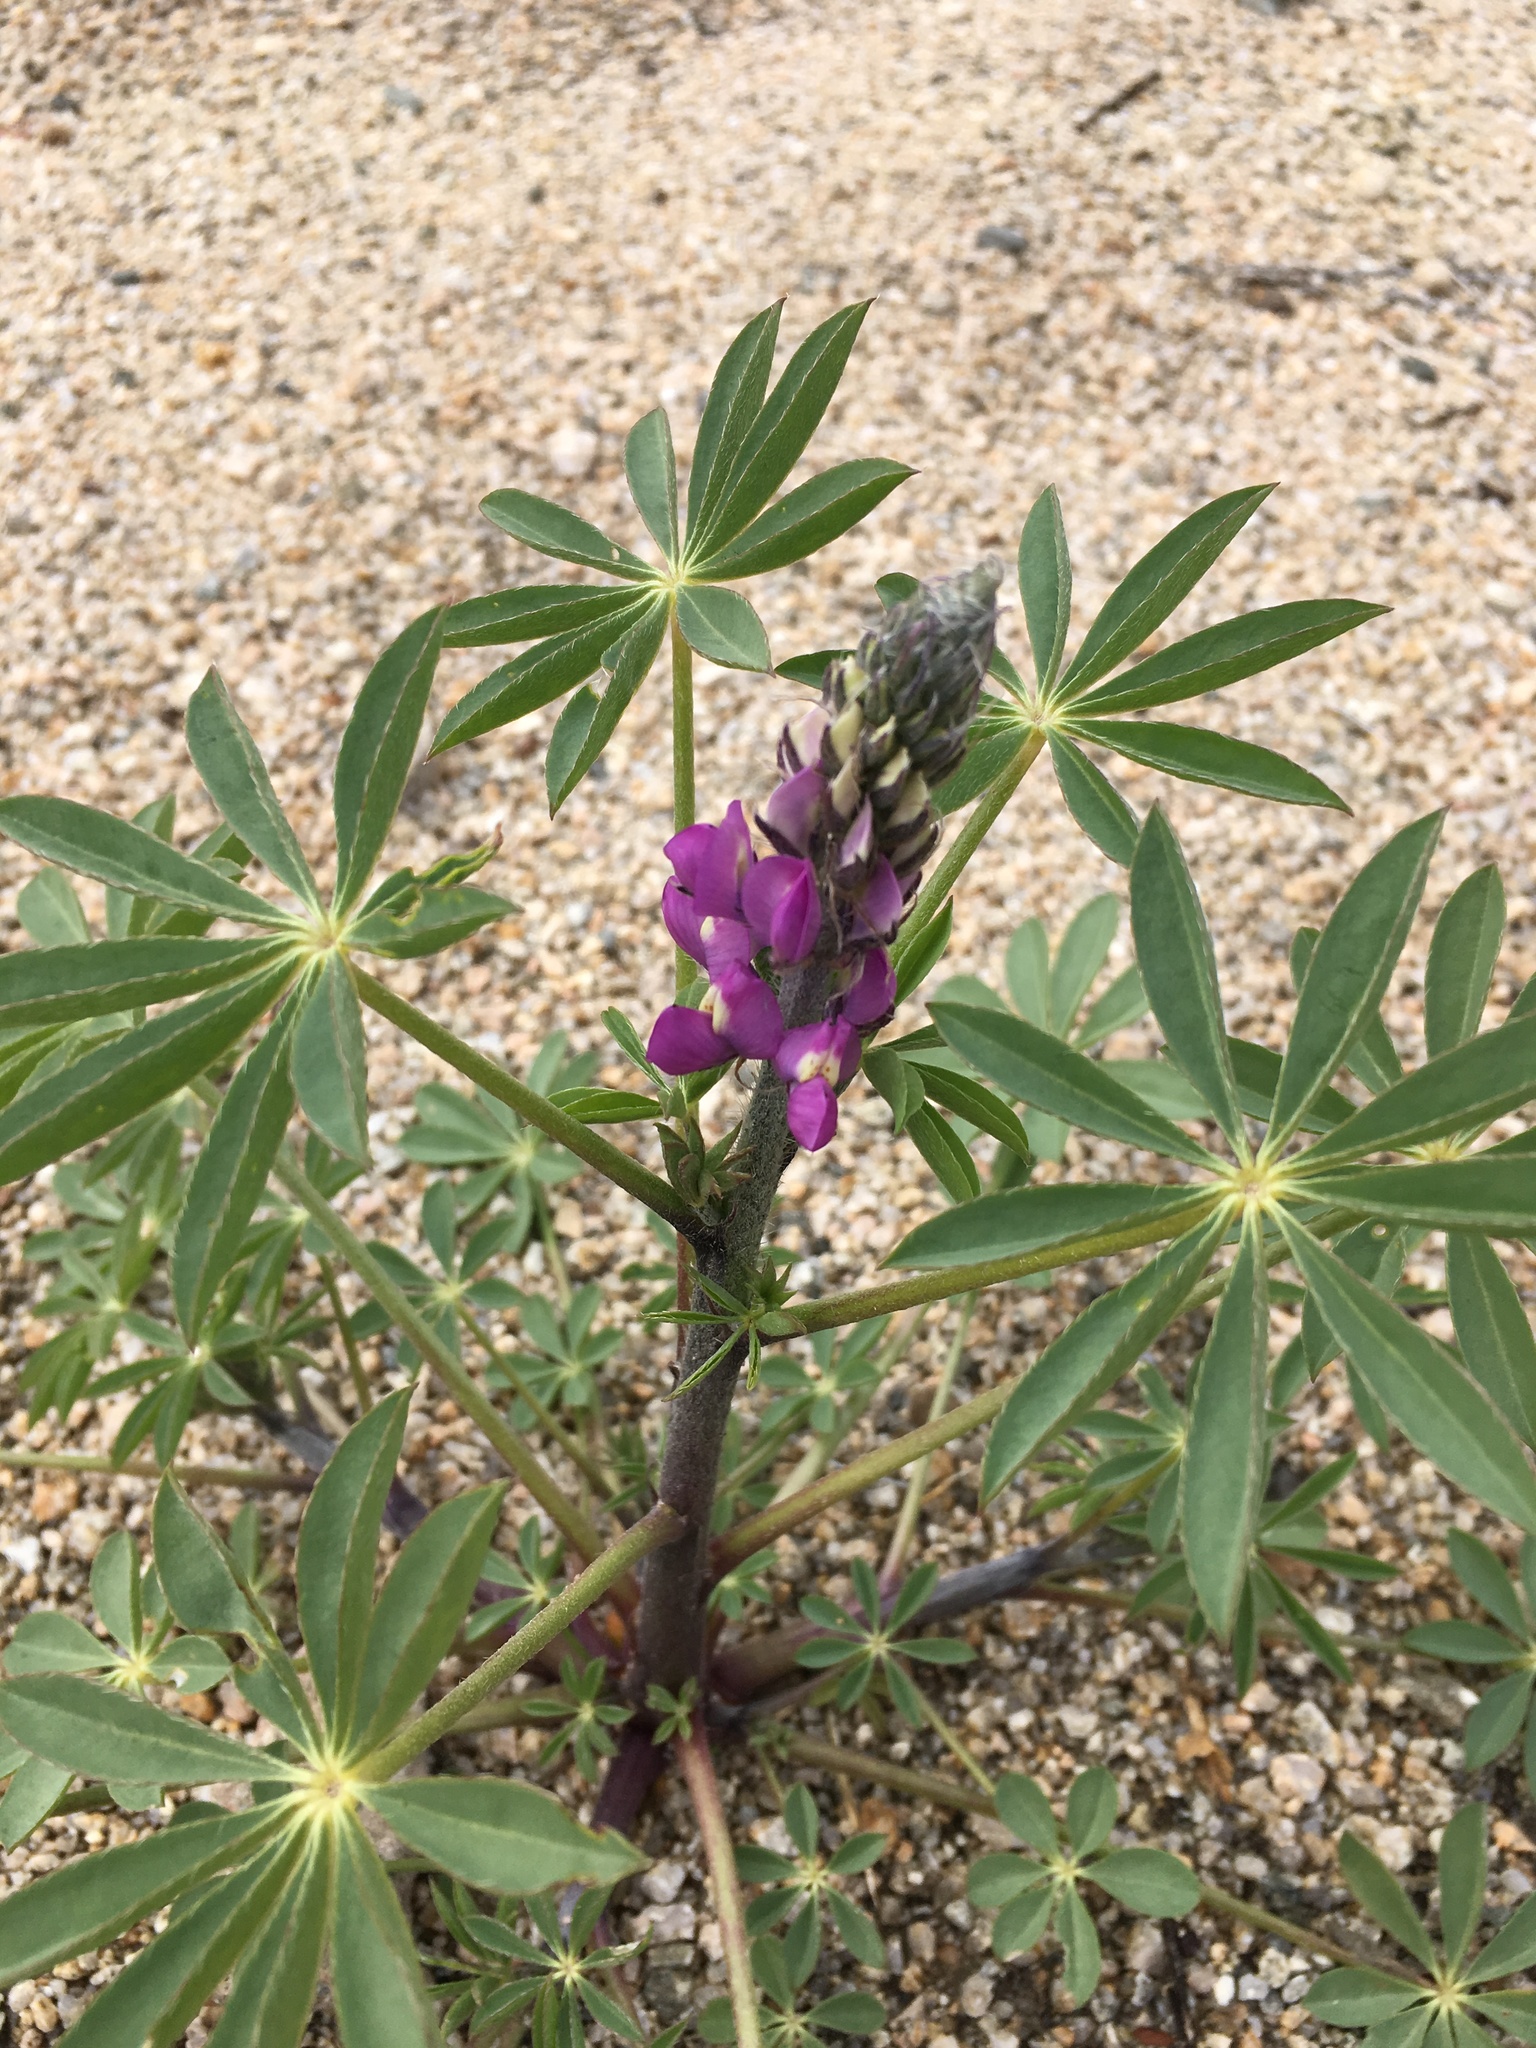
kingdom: Plantae
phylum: Tracheophyta
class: Magnoliopsida
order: Fabales
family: Fabaceae
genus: Lupinus
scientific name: Lupinus arizonicus
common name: Arizona lupine
